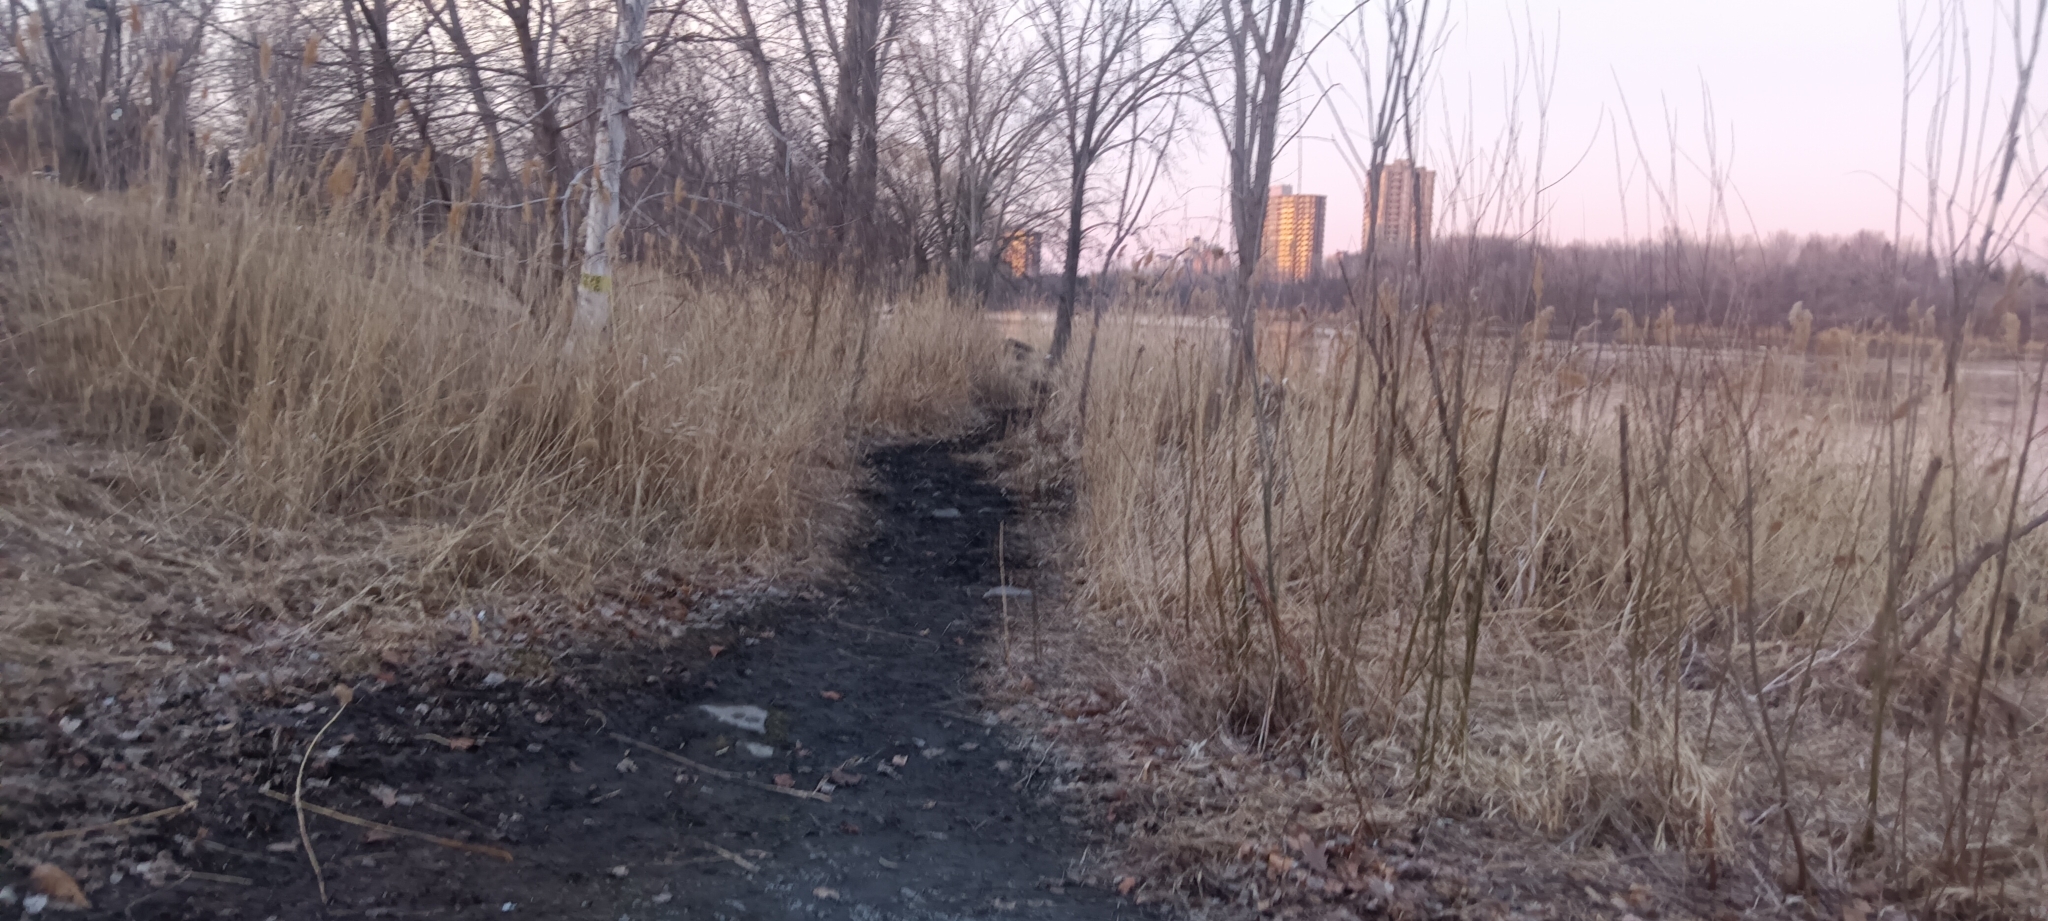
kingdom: Plantae
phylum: Tracheophyta
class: Liliopsida
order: Poales
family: Poaceae
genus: Phragmites
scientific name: Phragmites australis
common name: Common reed
